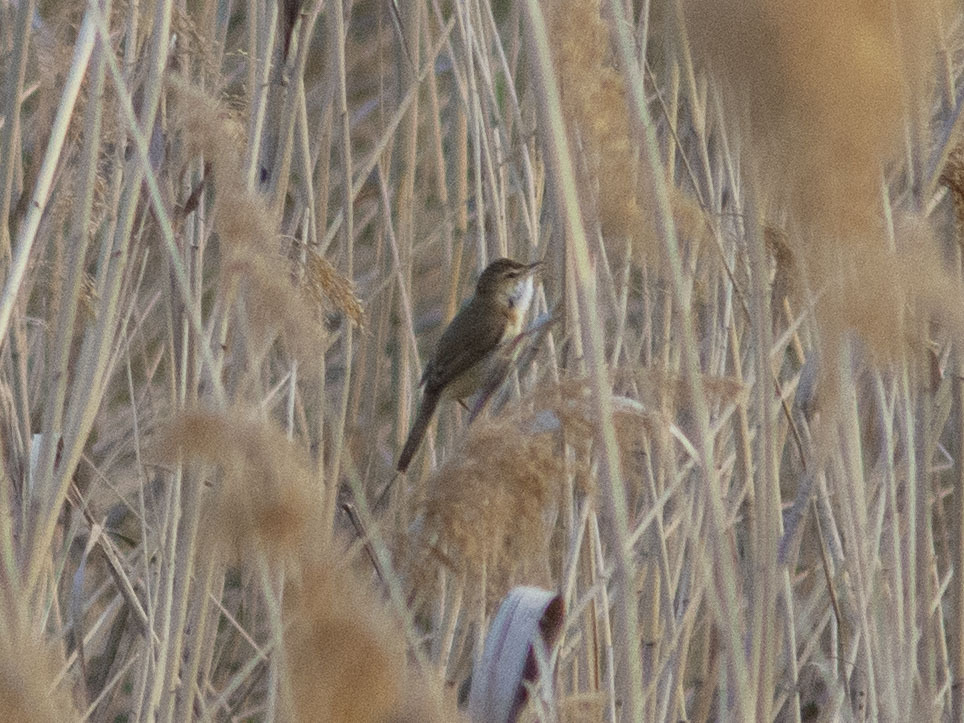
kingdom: Animalia
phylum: Chordata
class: Aves
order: Passeriformes
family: Acrocephalidae
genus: Acrocephalus
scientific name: Acrocephalus agricola
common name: Paddyfield warbler
